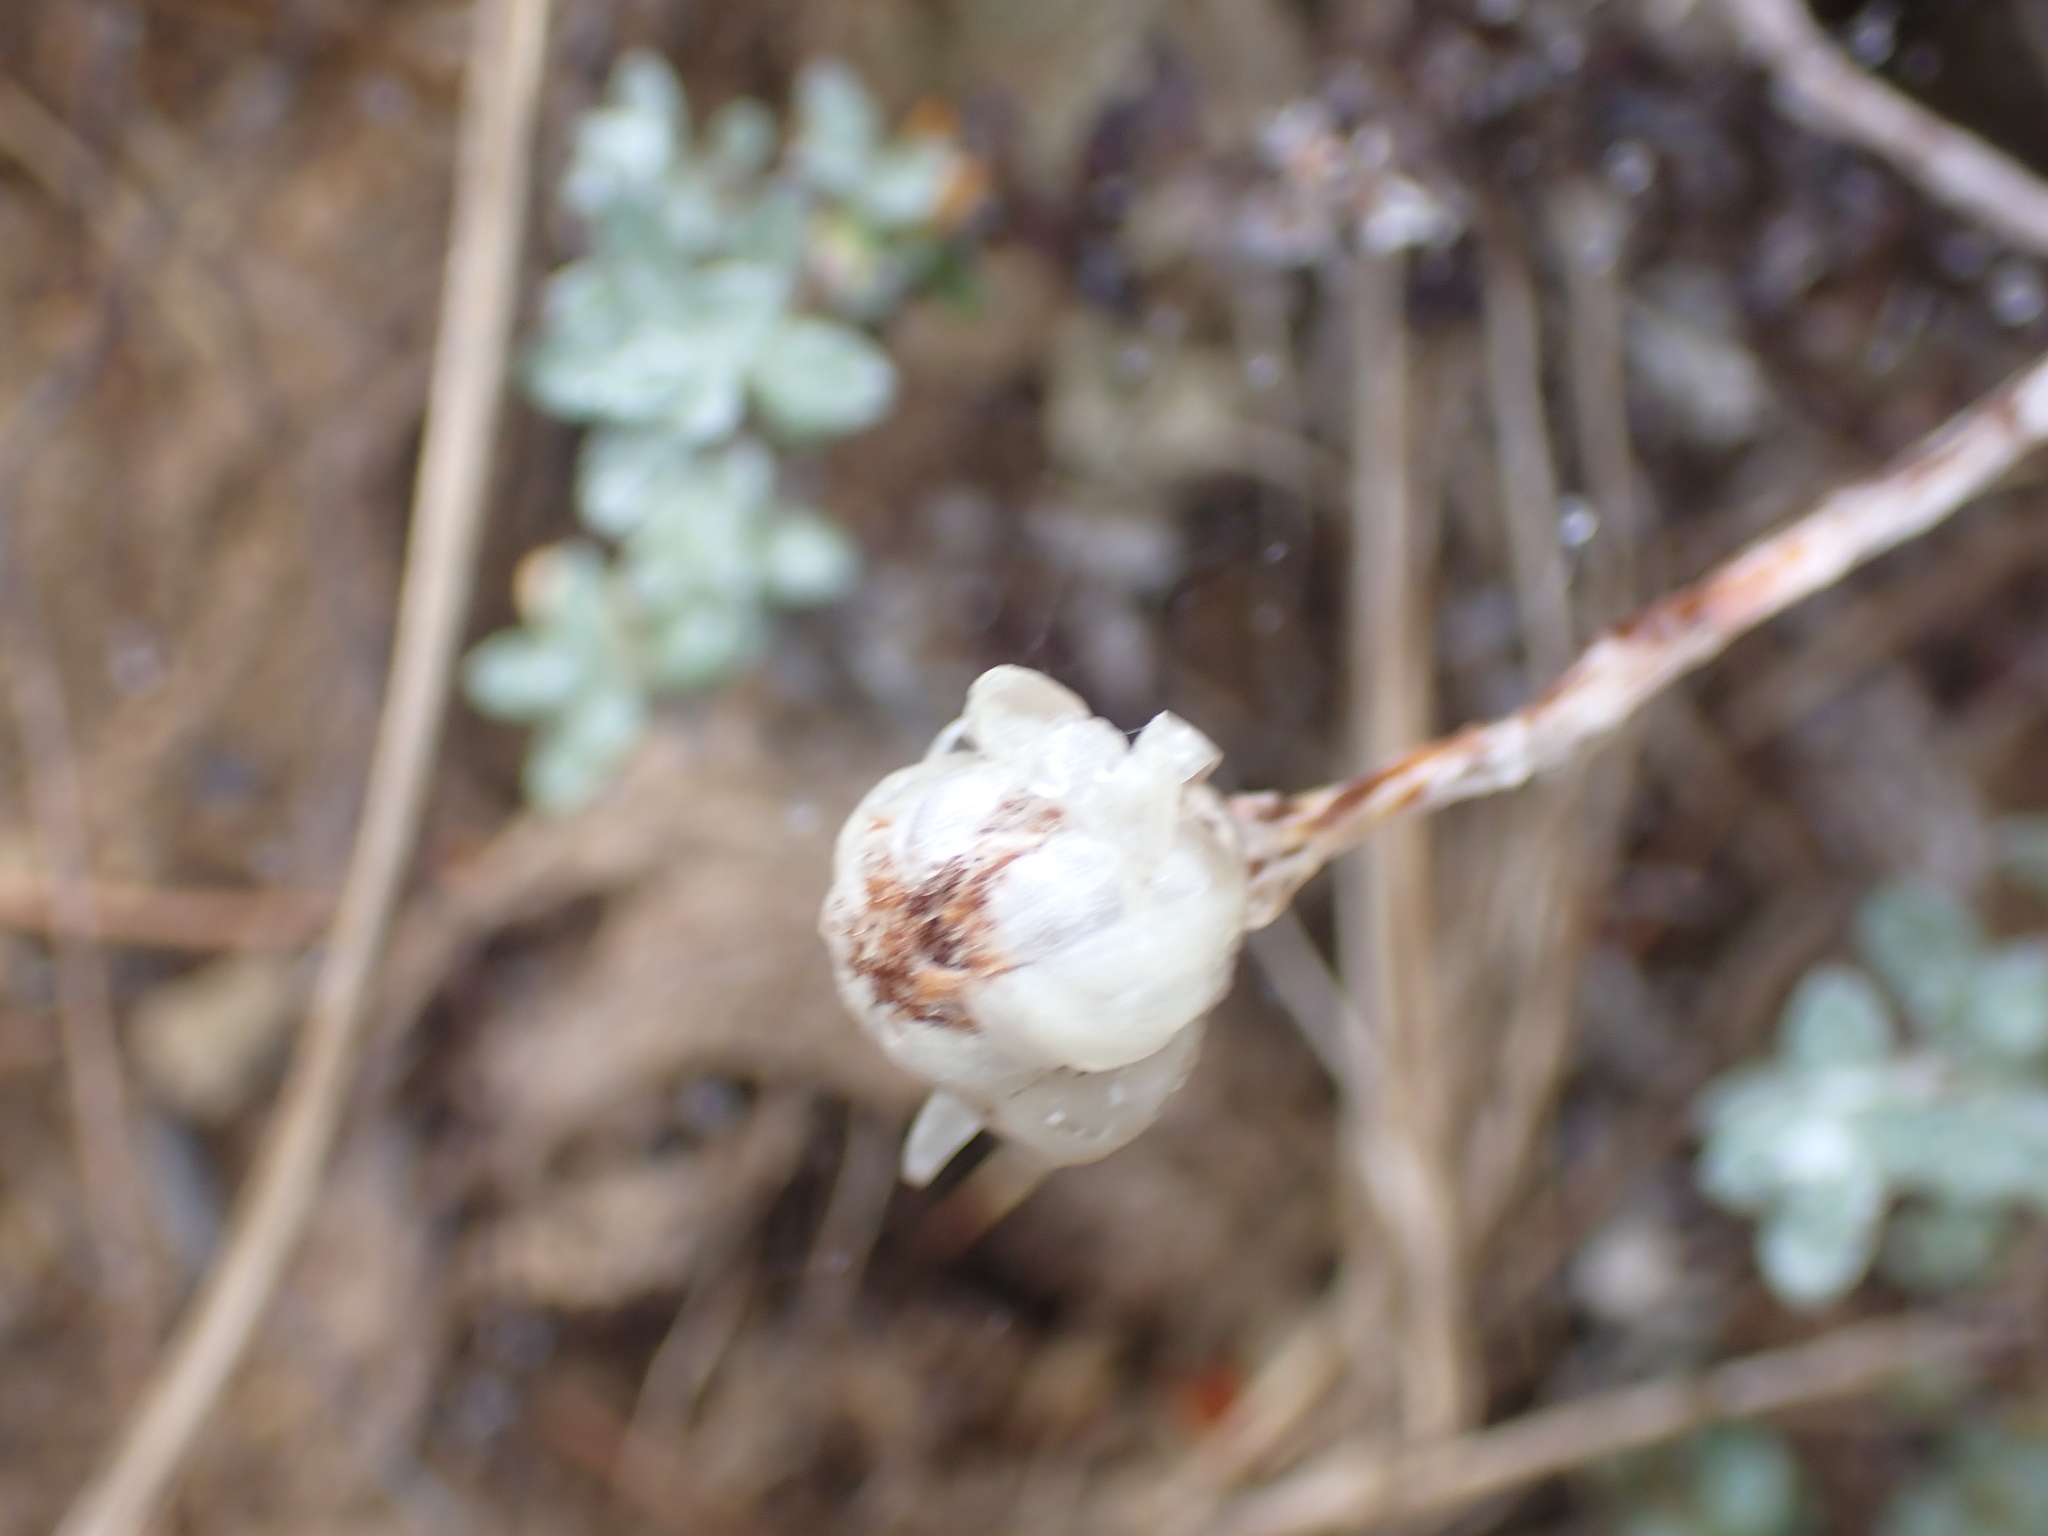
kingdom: Plantae
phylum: Tracheophyta
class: Magnoliopsida
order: Asterales
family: Asteraceae
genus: Anaphalioides
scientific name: Anaphalioides bellidioides
